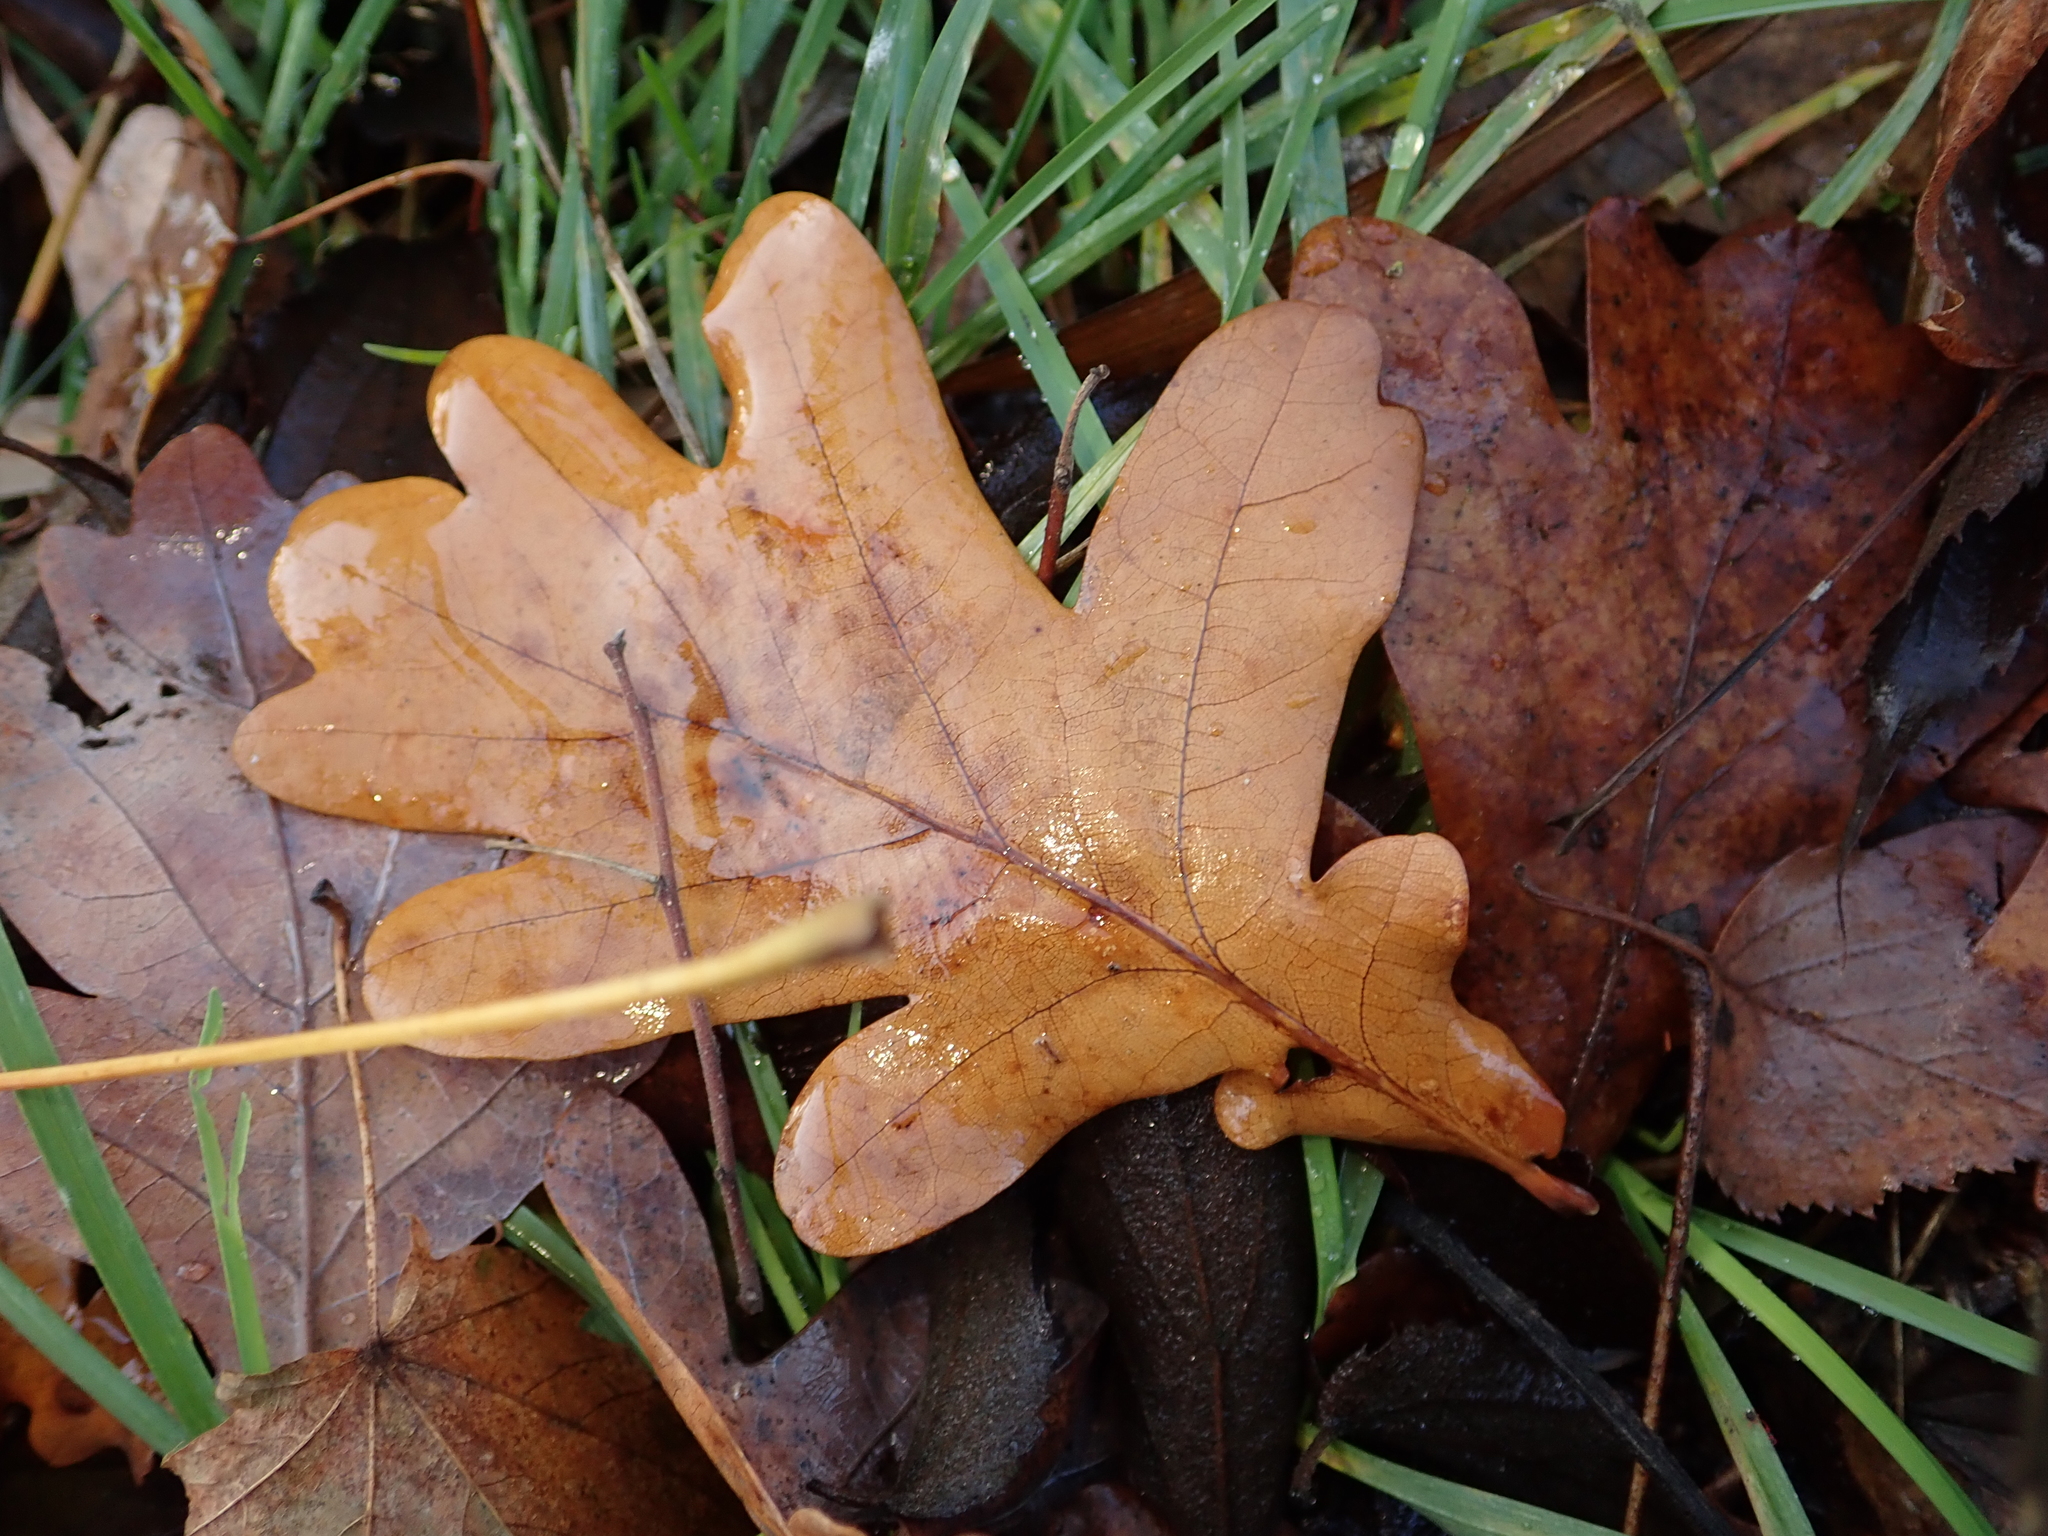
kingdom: Plantae
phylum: Tracheophyta
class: Magnoliopsida
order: Fagales
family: Fagaceae
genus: Quercus
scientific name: Quercus robur
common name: Pedunculate oak
